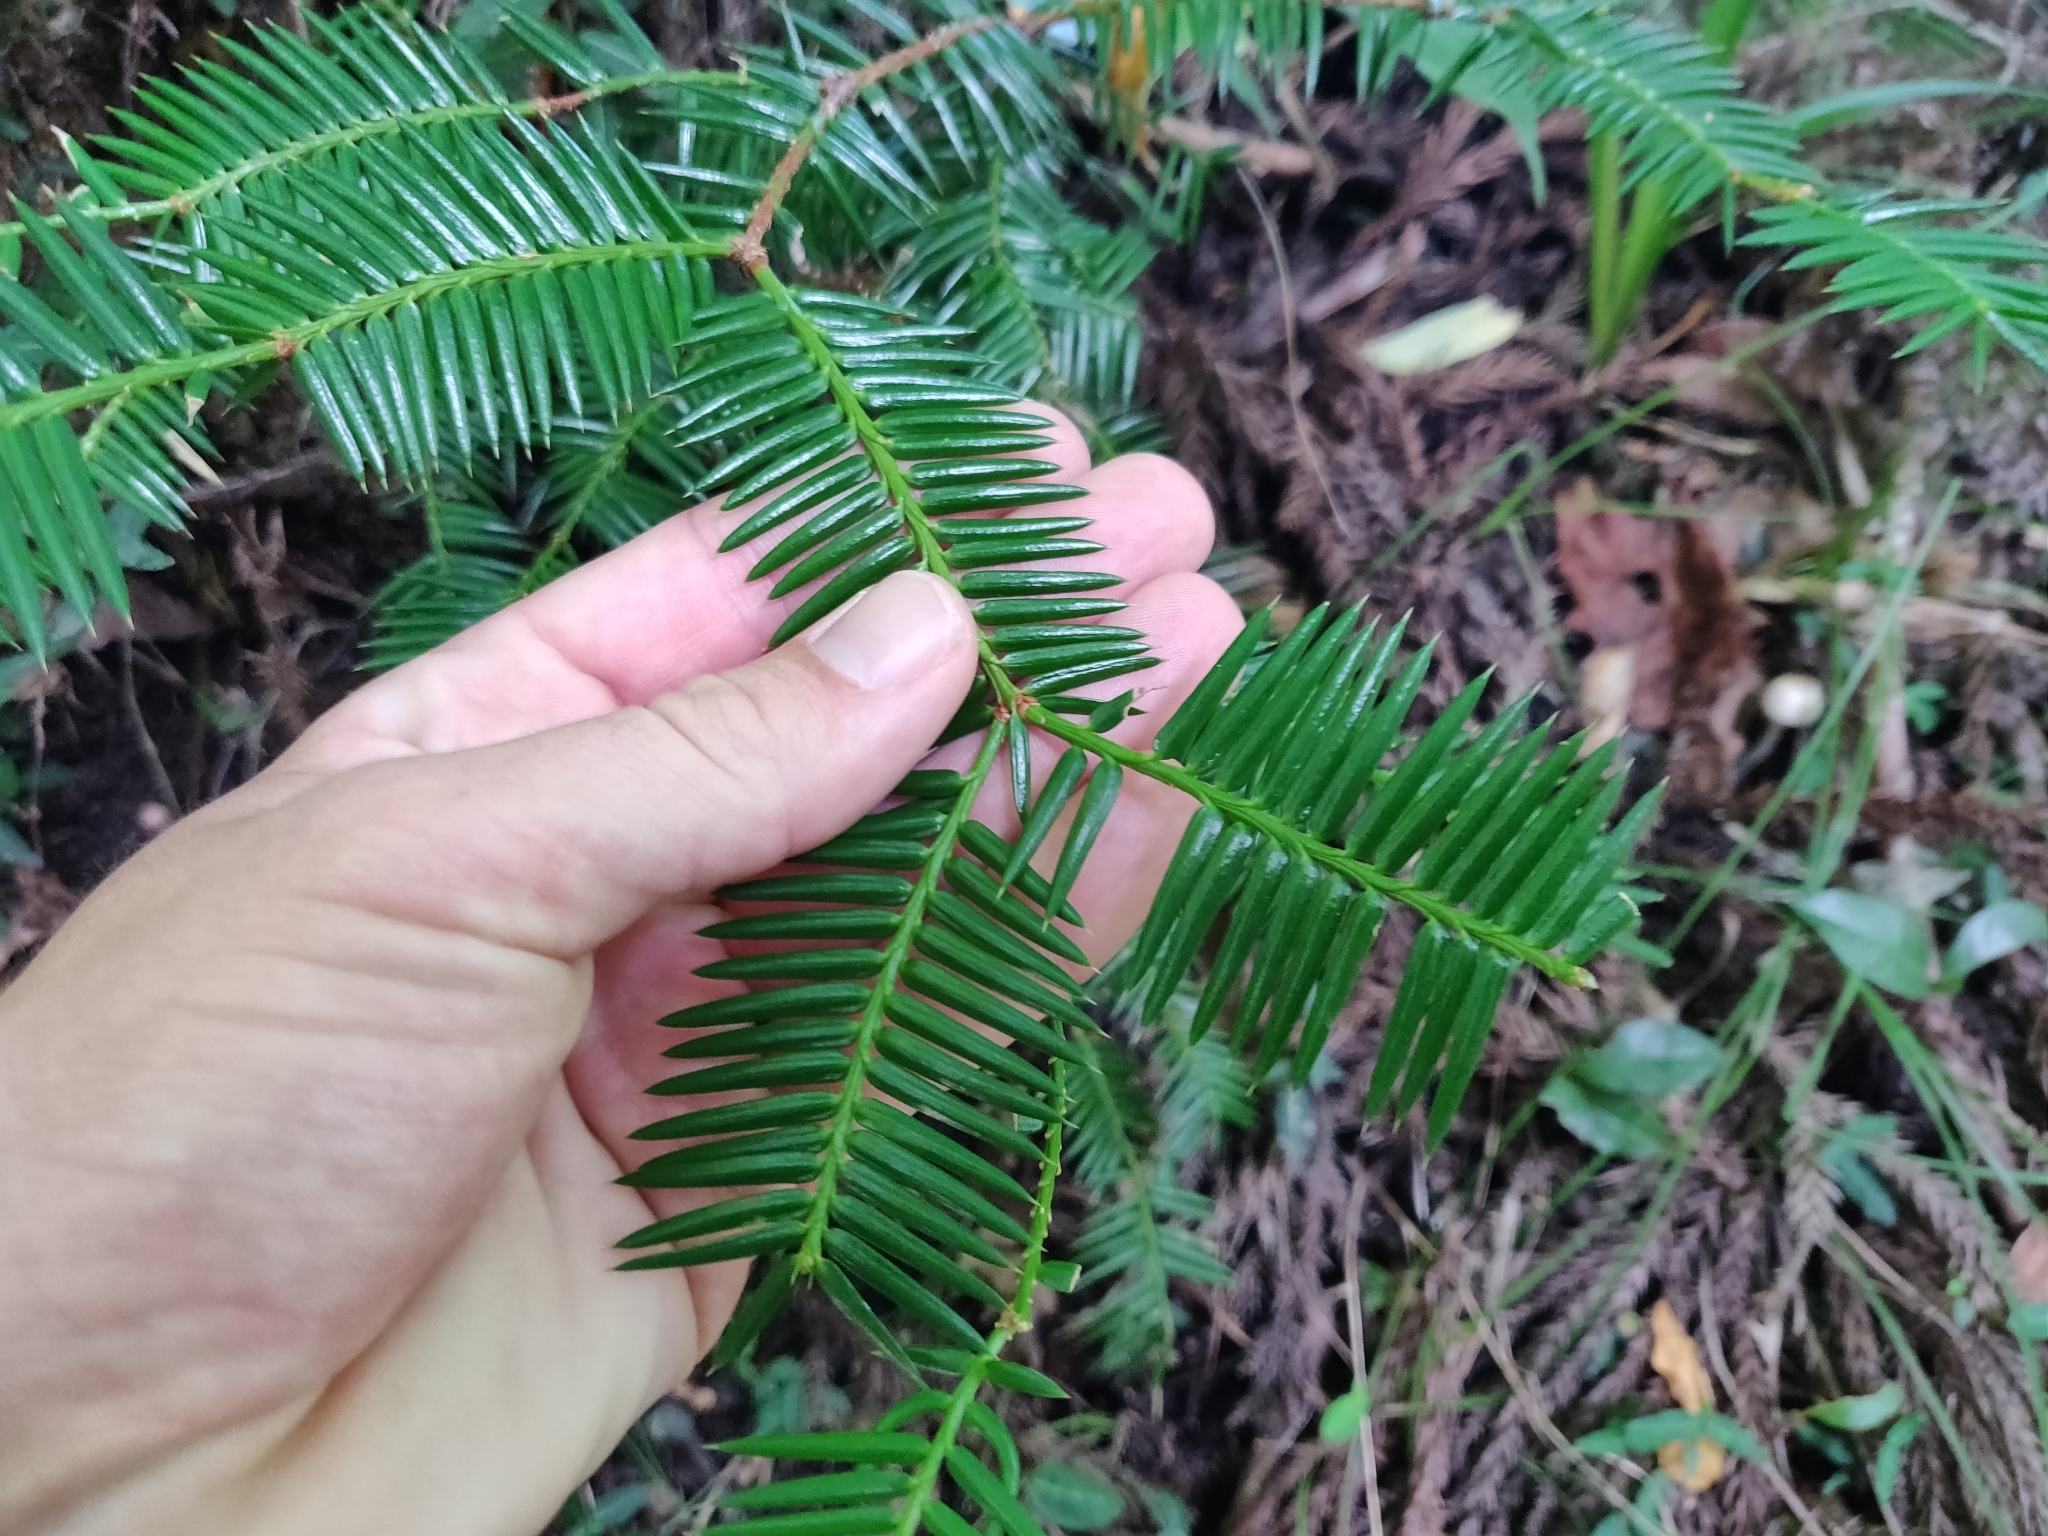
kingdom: Plantae
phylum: Tracheophyta
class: Pinopsida
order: Pinales
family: Taxaceae
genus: Torreya
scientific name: Torreya nucifera
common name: Japanese nutmeg tree
